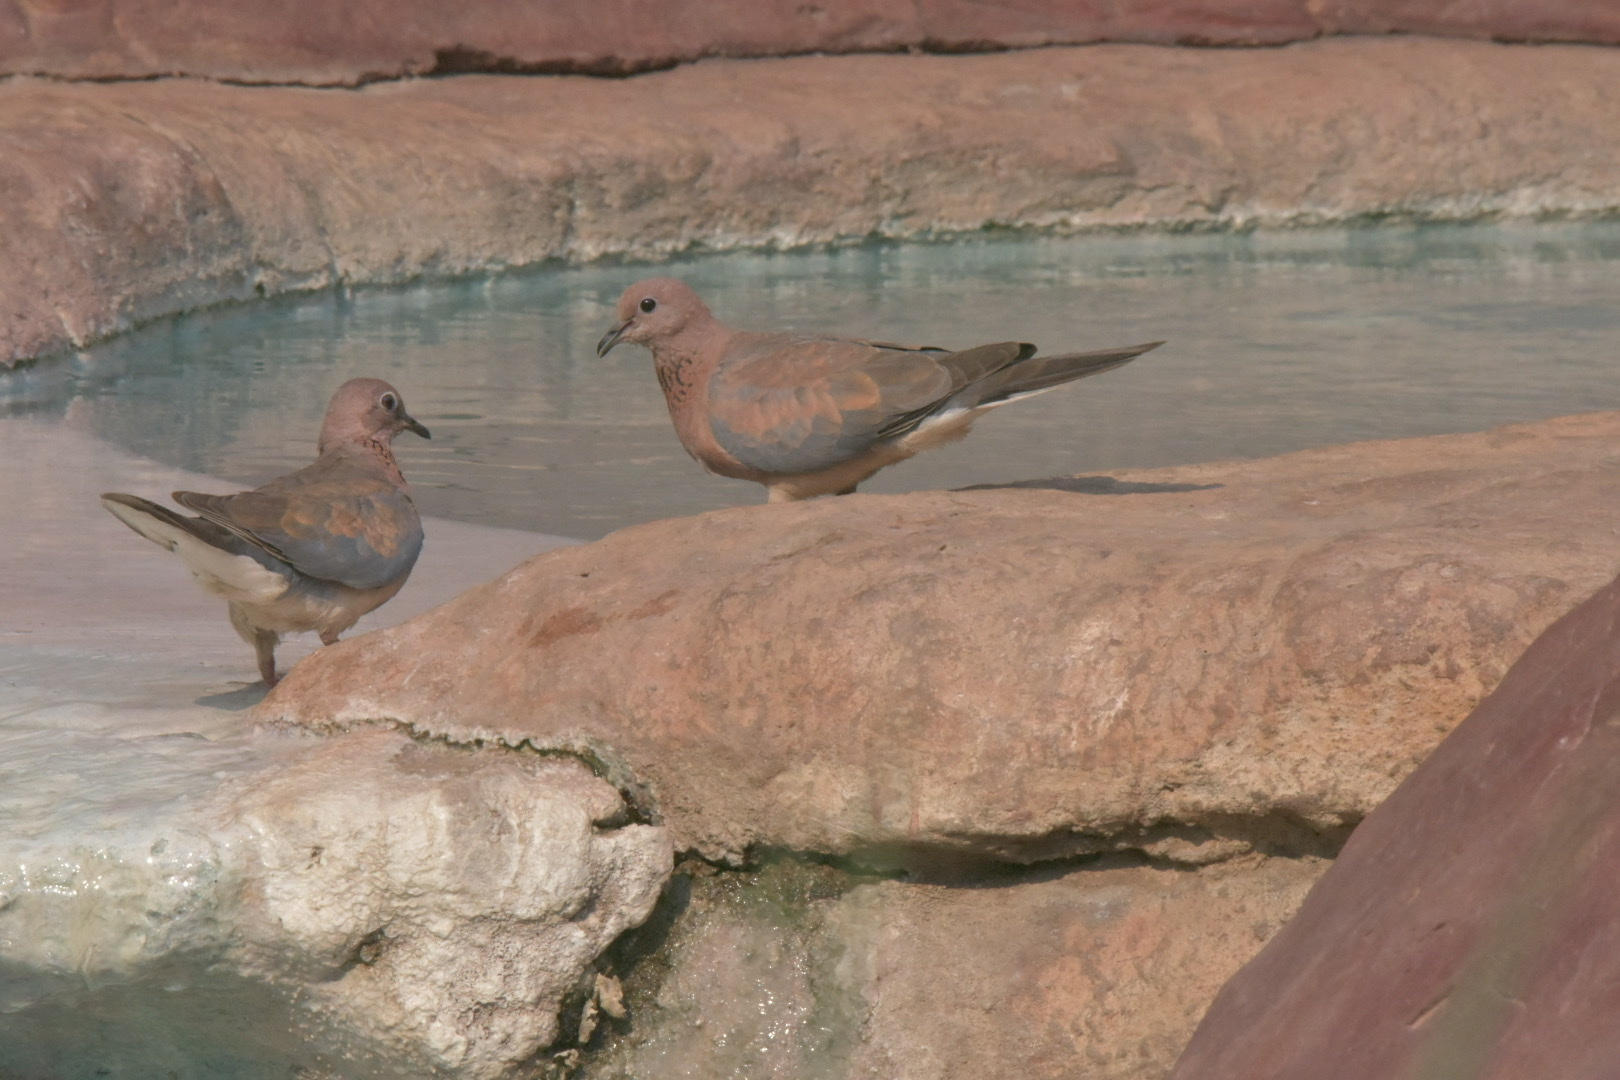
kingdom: Animalia
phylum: Chordata
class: Aves
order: Columbiformes
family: Columbidae
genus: Spilopelia
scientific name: Spilopelia senegalensis
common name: Laughing dove
